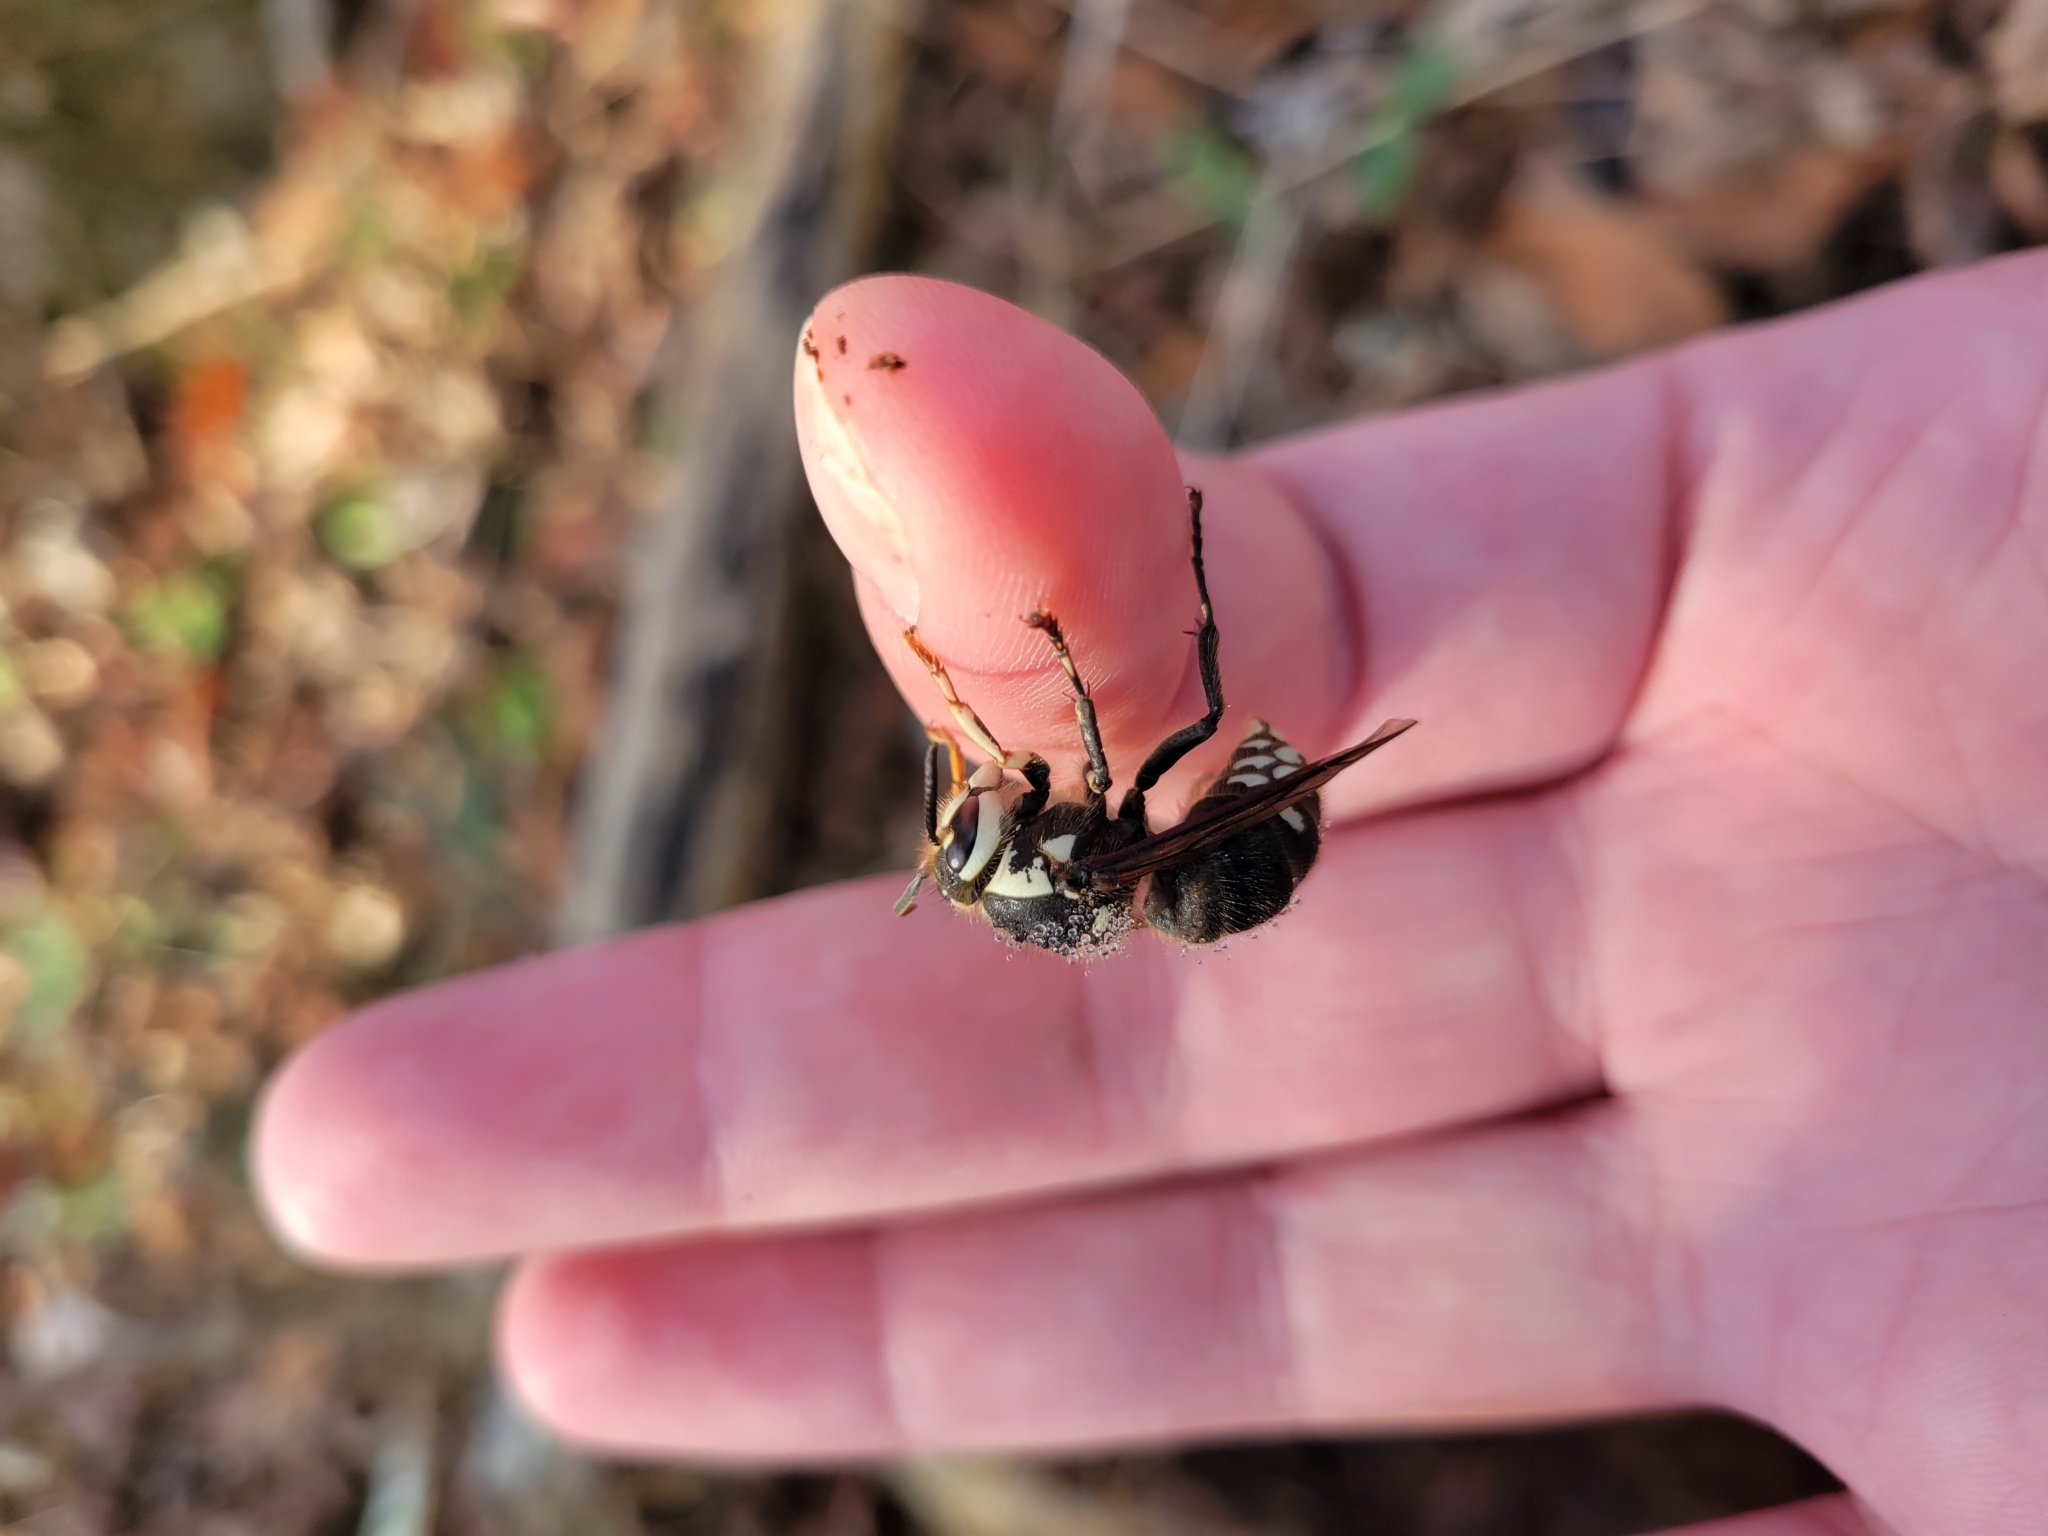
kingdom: Animalia
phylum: Arthropoda
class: Insecta
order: Hymenoptera
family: Vespidae
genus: Dolichovespula
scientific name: Dolichovespula maculata
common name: Bald-faced hornet
